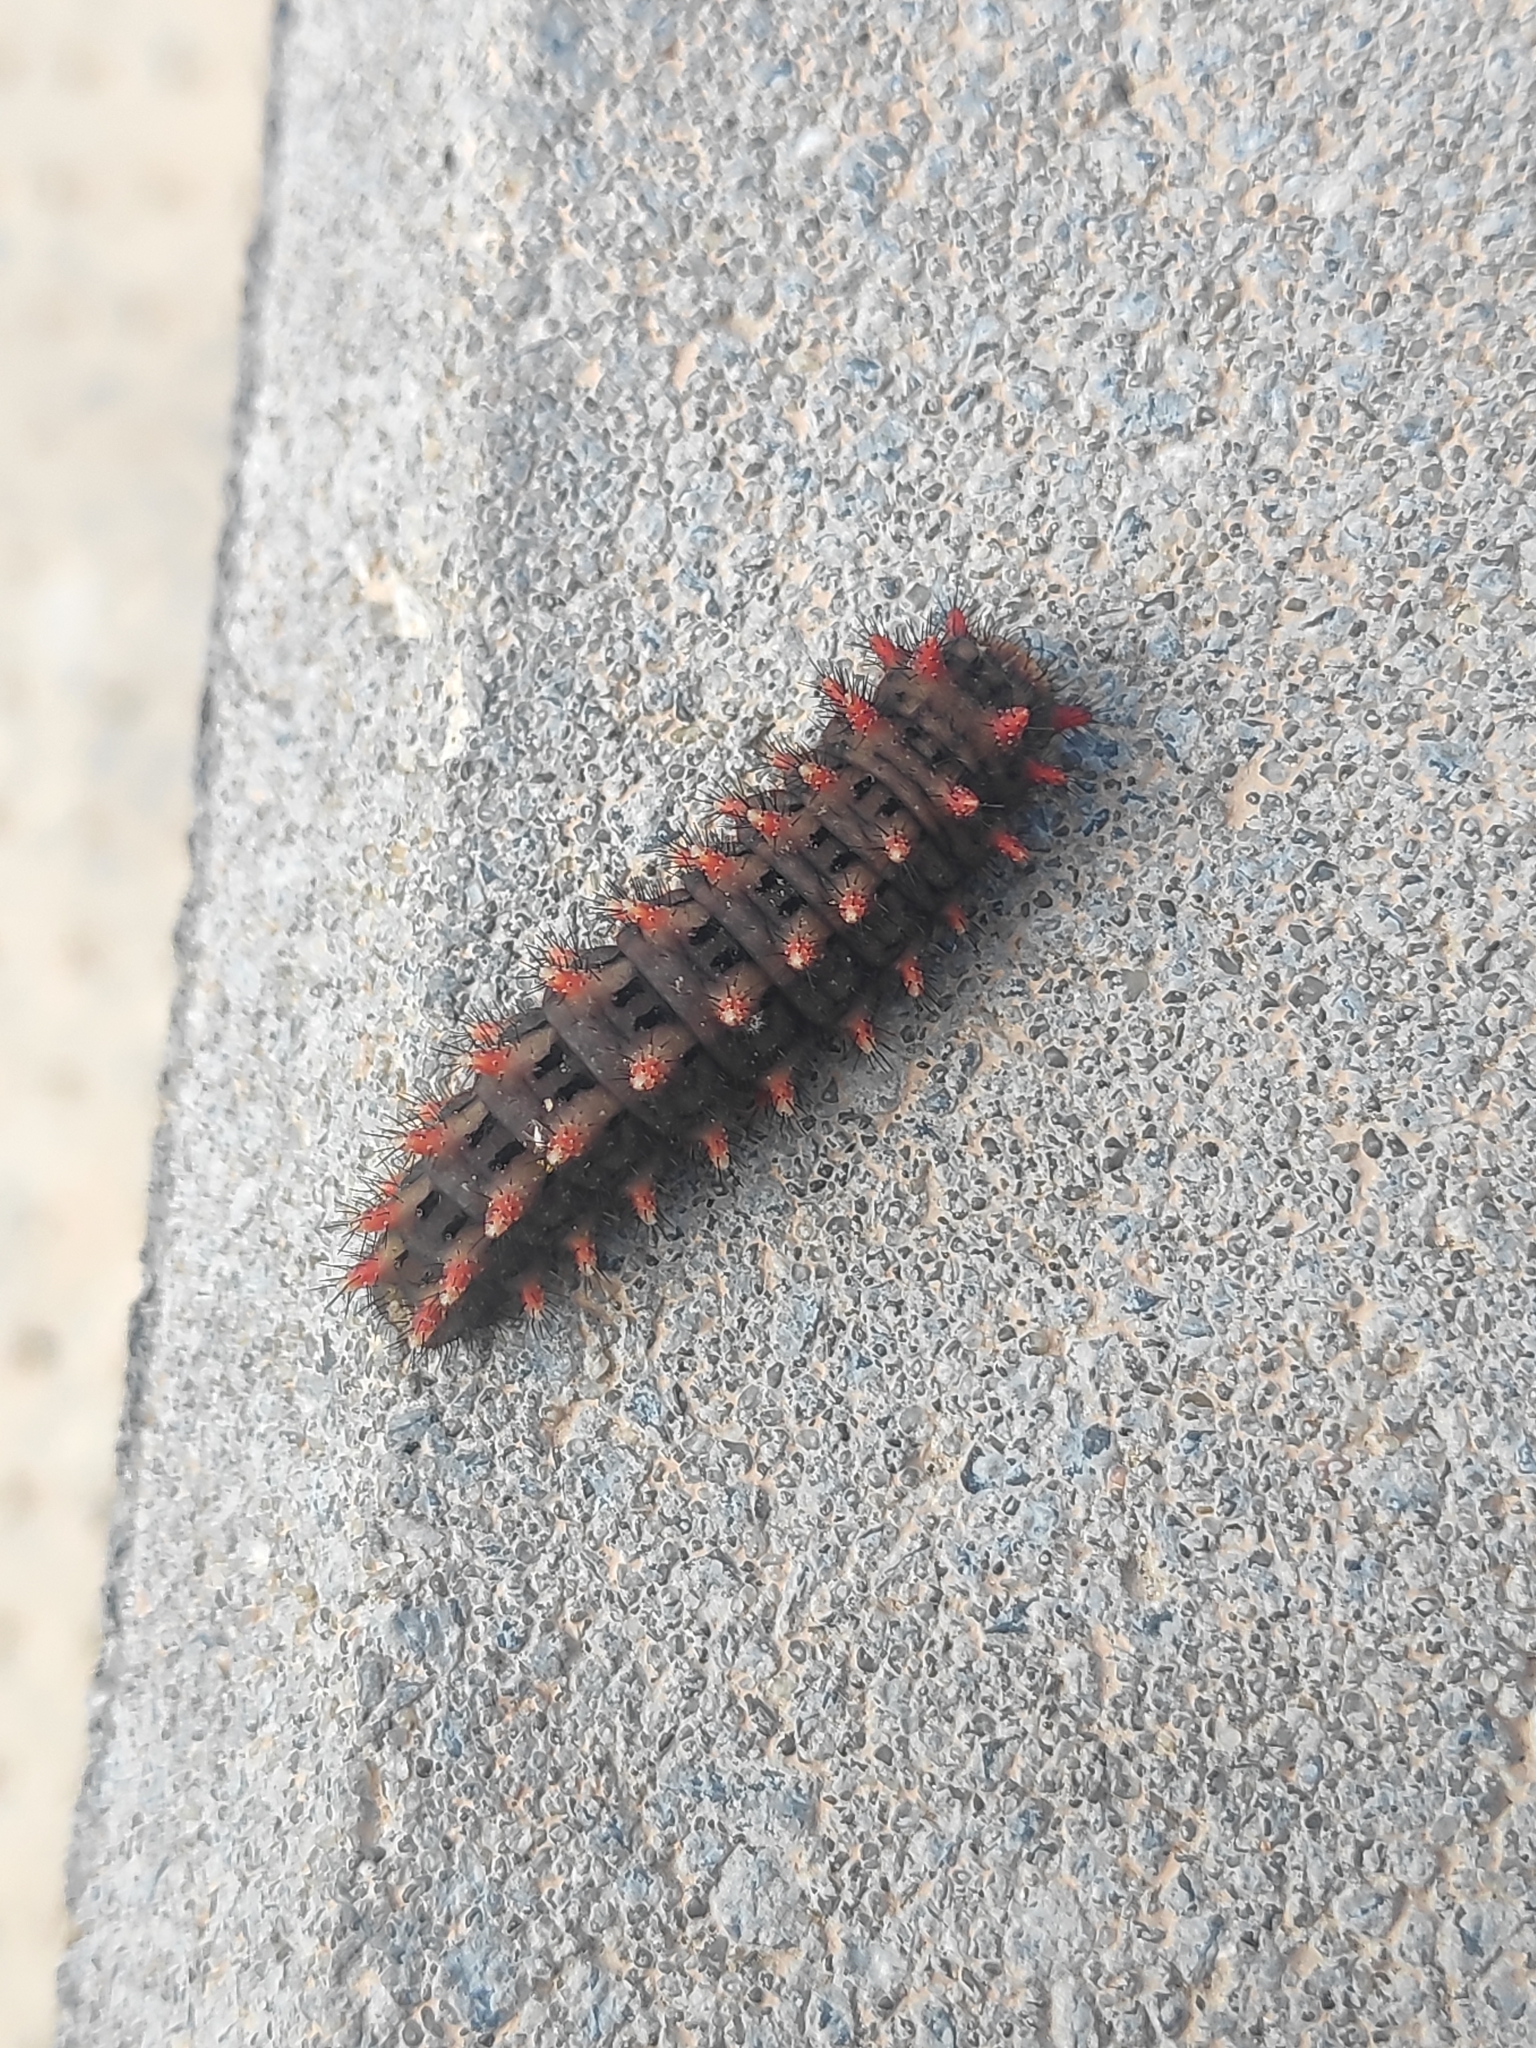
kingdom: Animalia
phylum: Arthropoda
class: Insecta
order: Lepidoptera
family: Papilionidae
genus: Zerynthia
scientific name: Zerynthia rumina
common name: Spanish festoon
